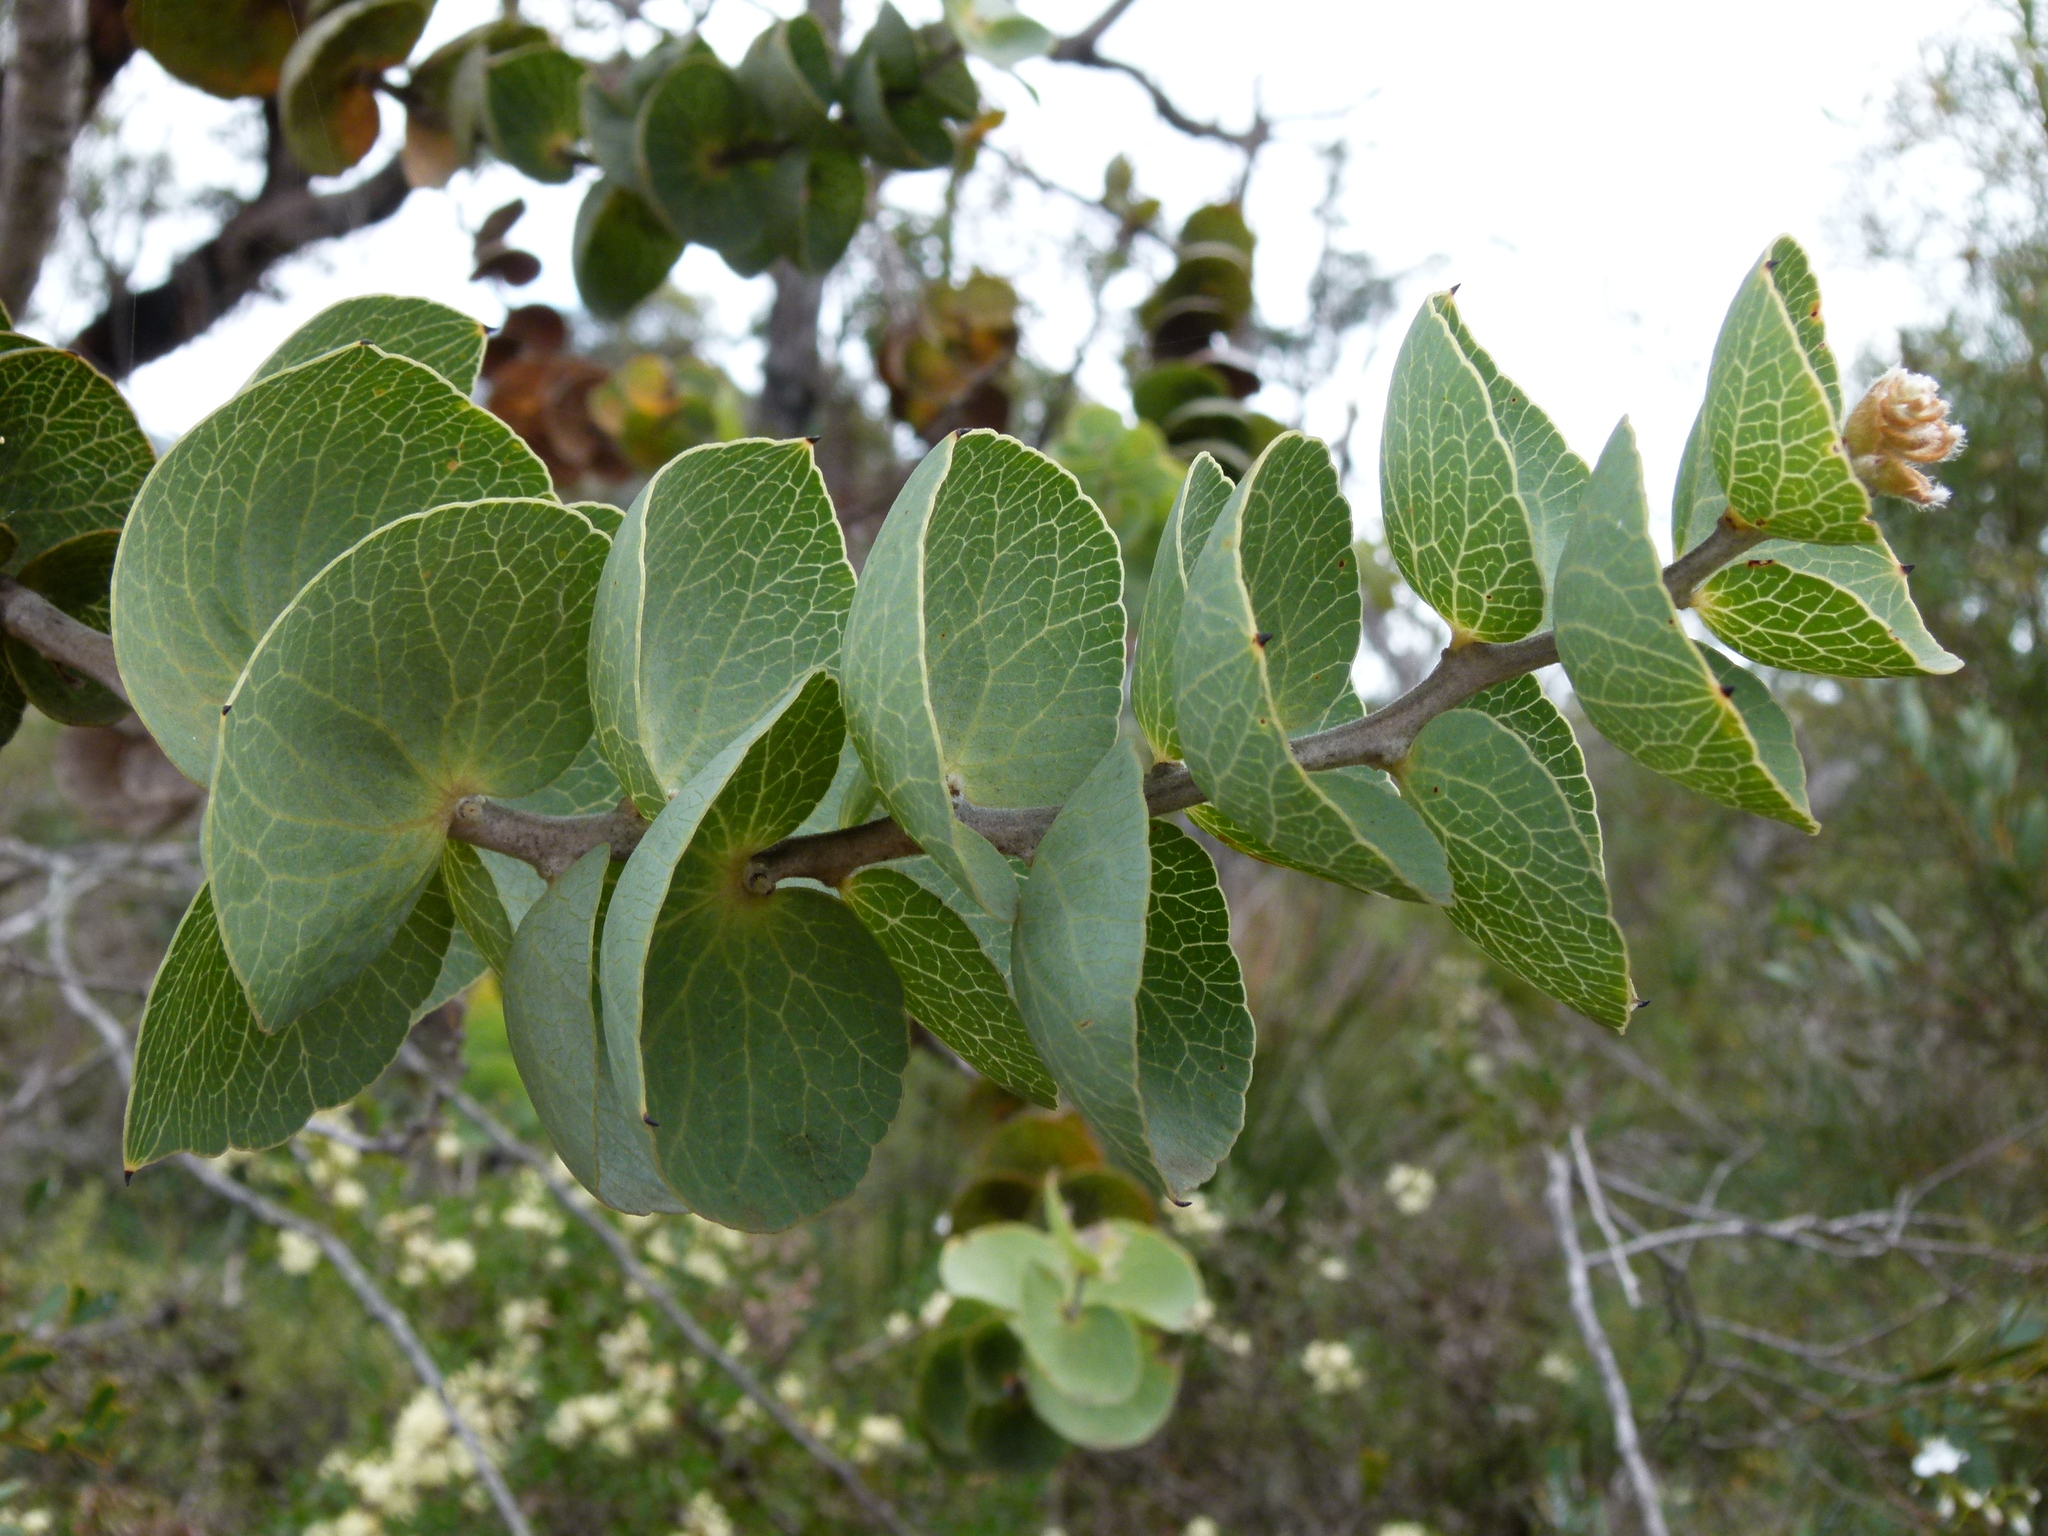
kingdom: Plantae
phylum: Tracheophyta
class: Magnoliopsida
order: Proteales
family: Proteaceae
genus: Hakea
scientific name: Hakea cucullata
